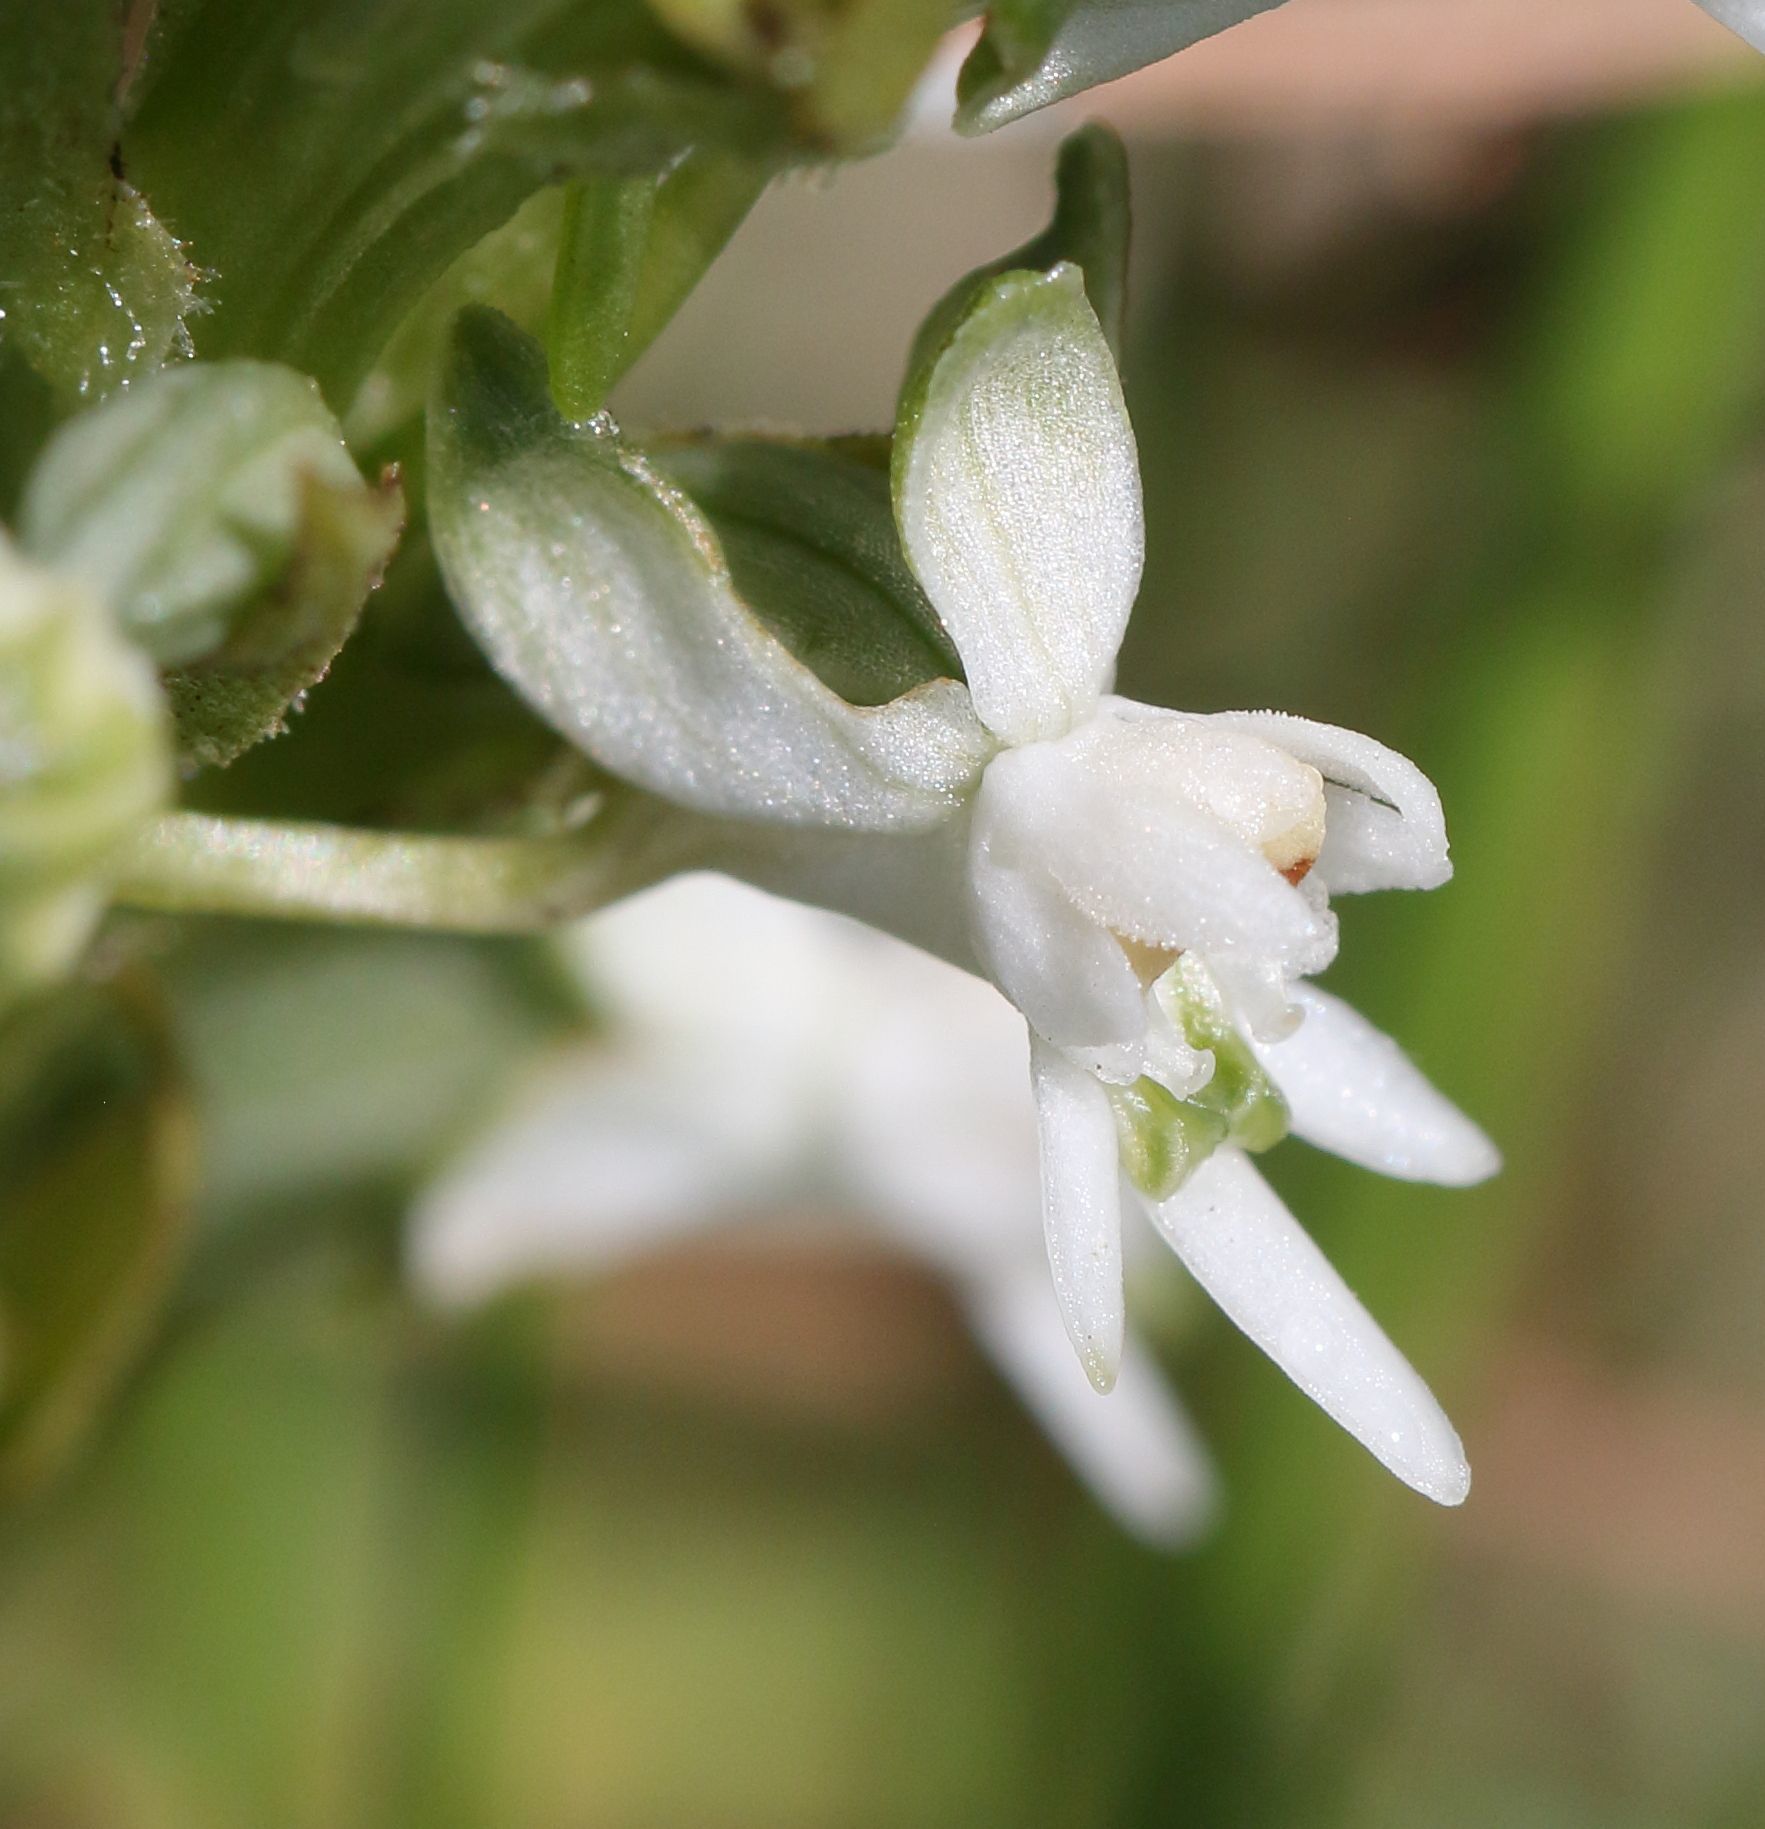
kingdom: Plantae
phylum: Tracheophyta
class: Liliopsida
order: Asparagales
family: Orchidaceae
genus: Habenaria
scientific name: Habenaria dives
